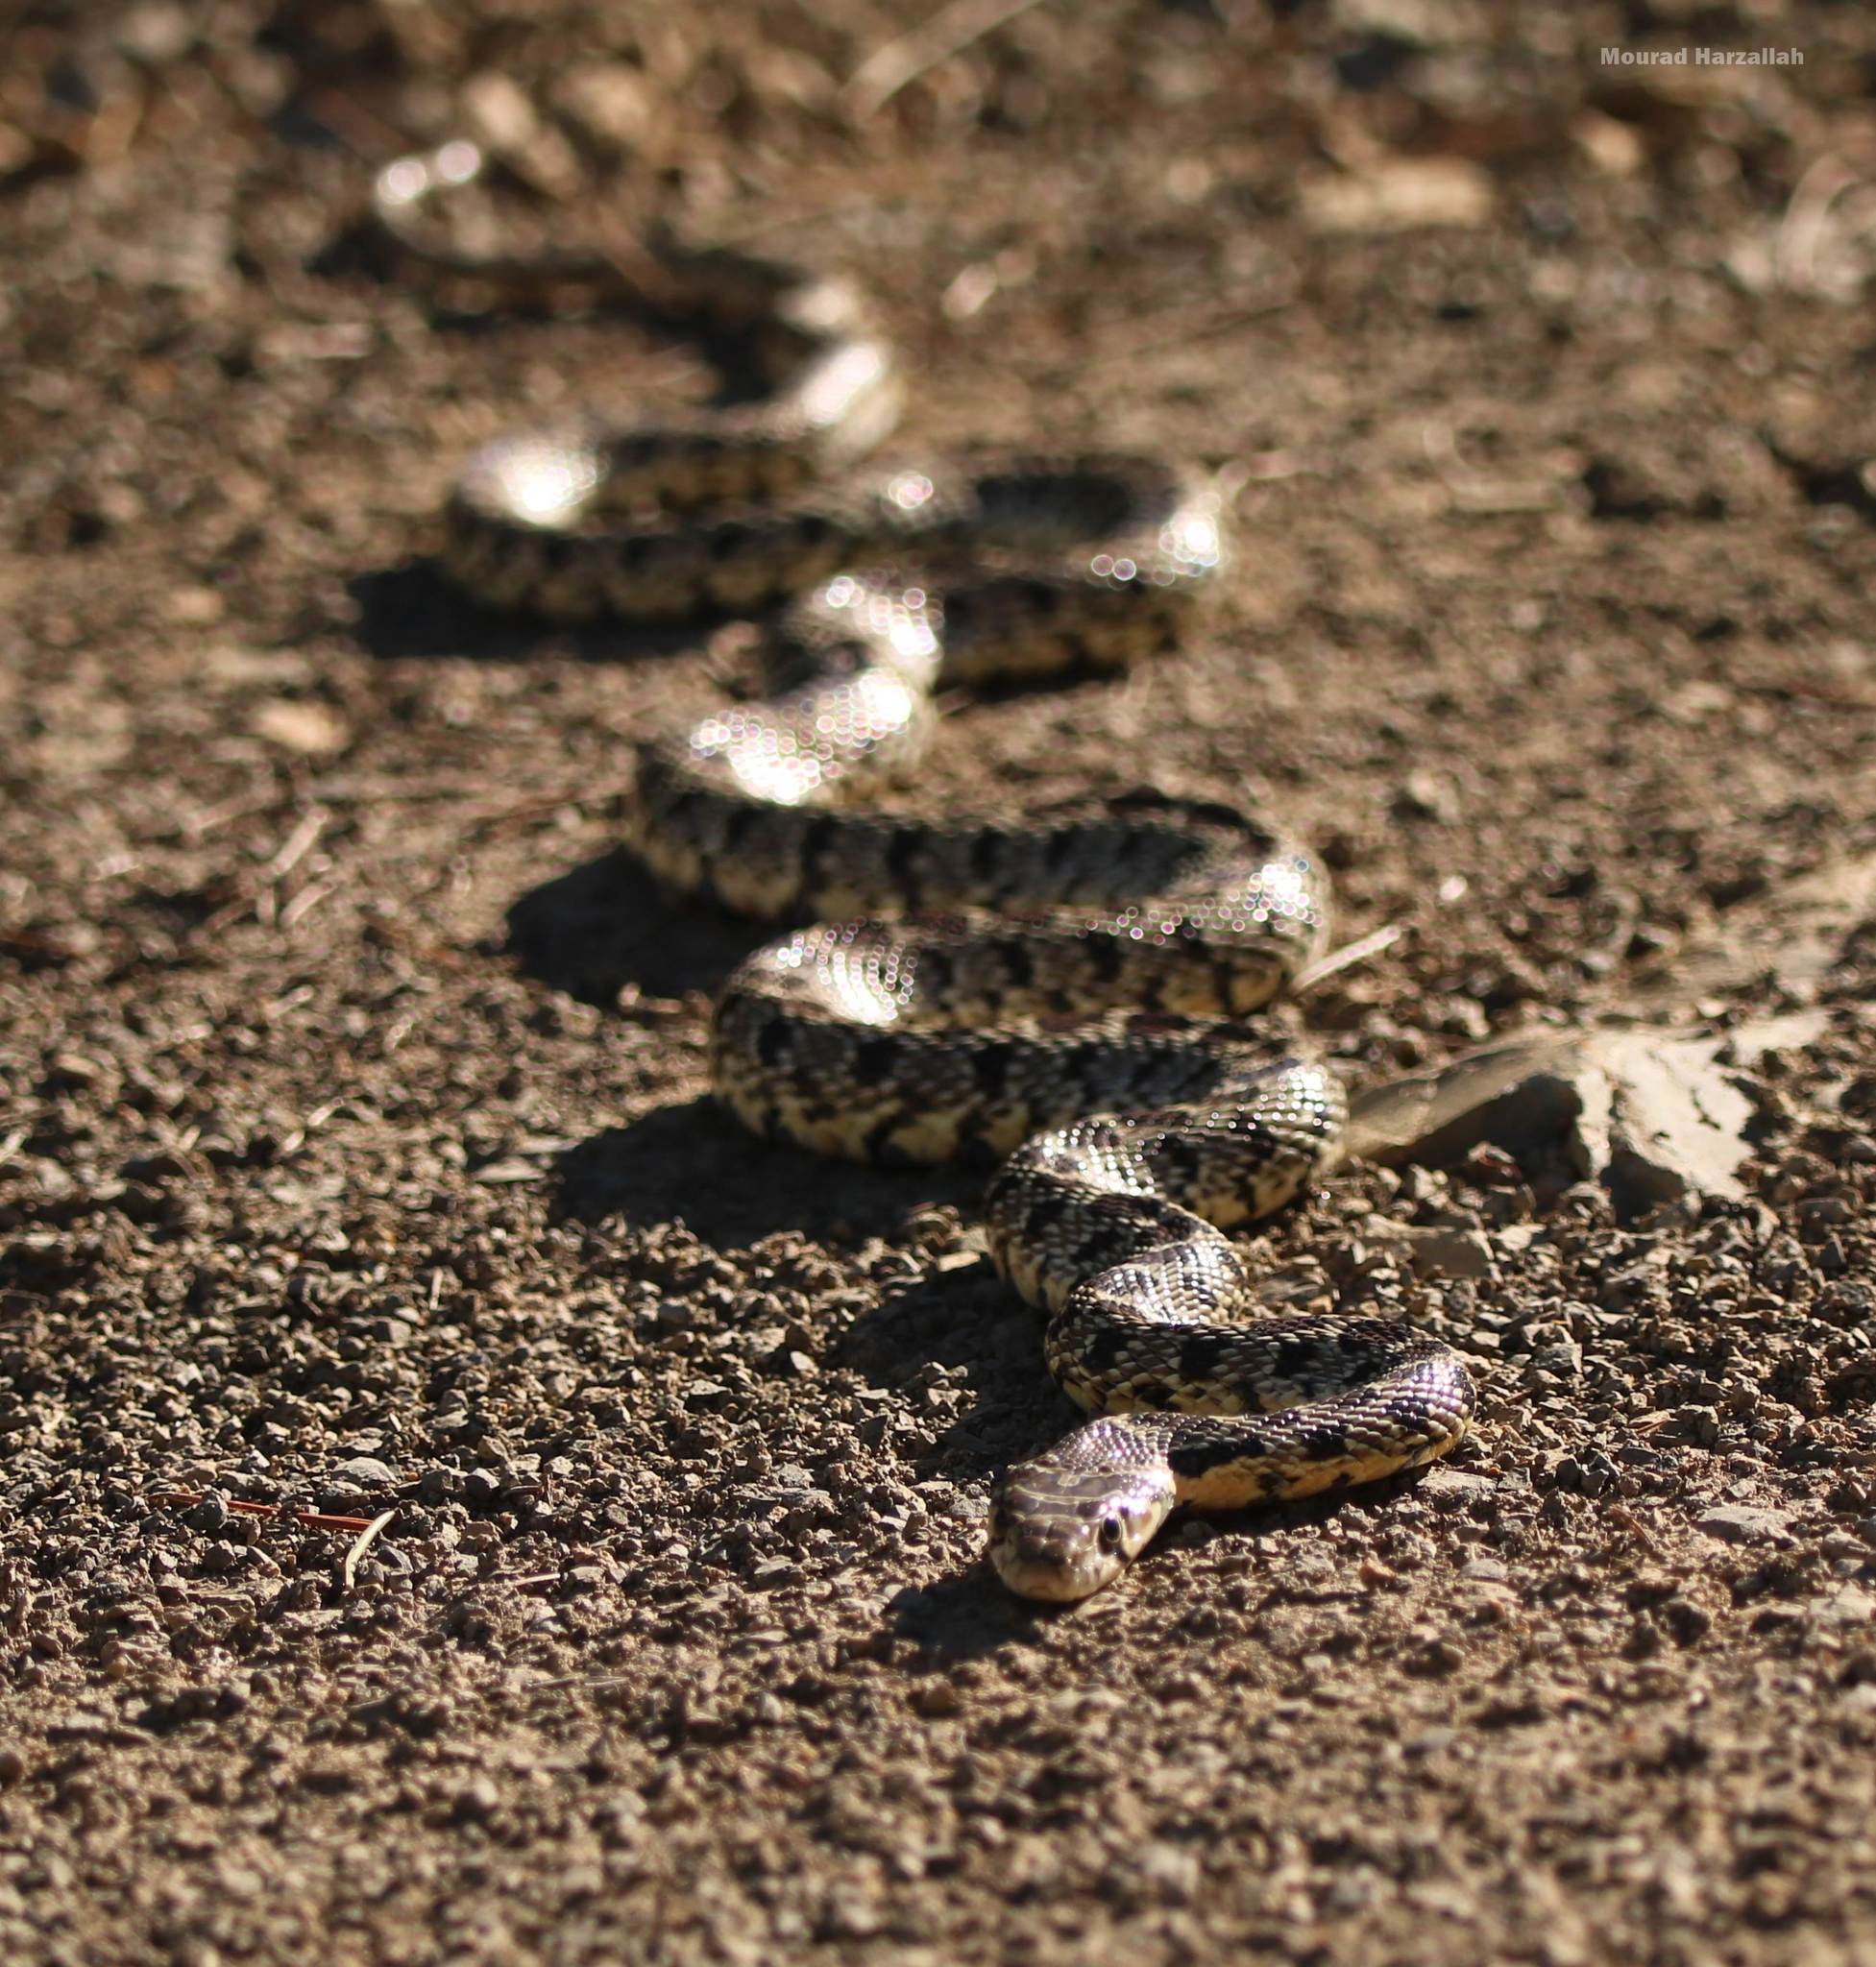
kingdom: Animalia
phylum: Chordata
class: Squamata
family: Colubridae
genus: Hemorrhois
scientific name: Hemorrhois hippocrepis
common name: Horseshoe whip snake
